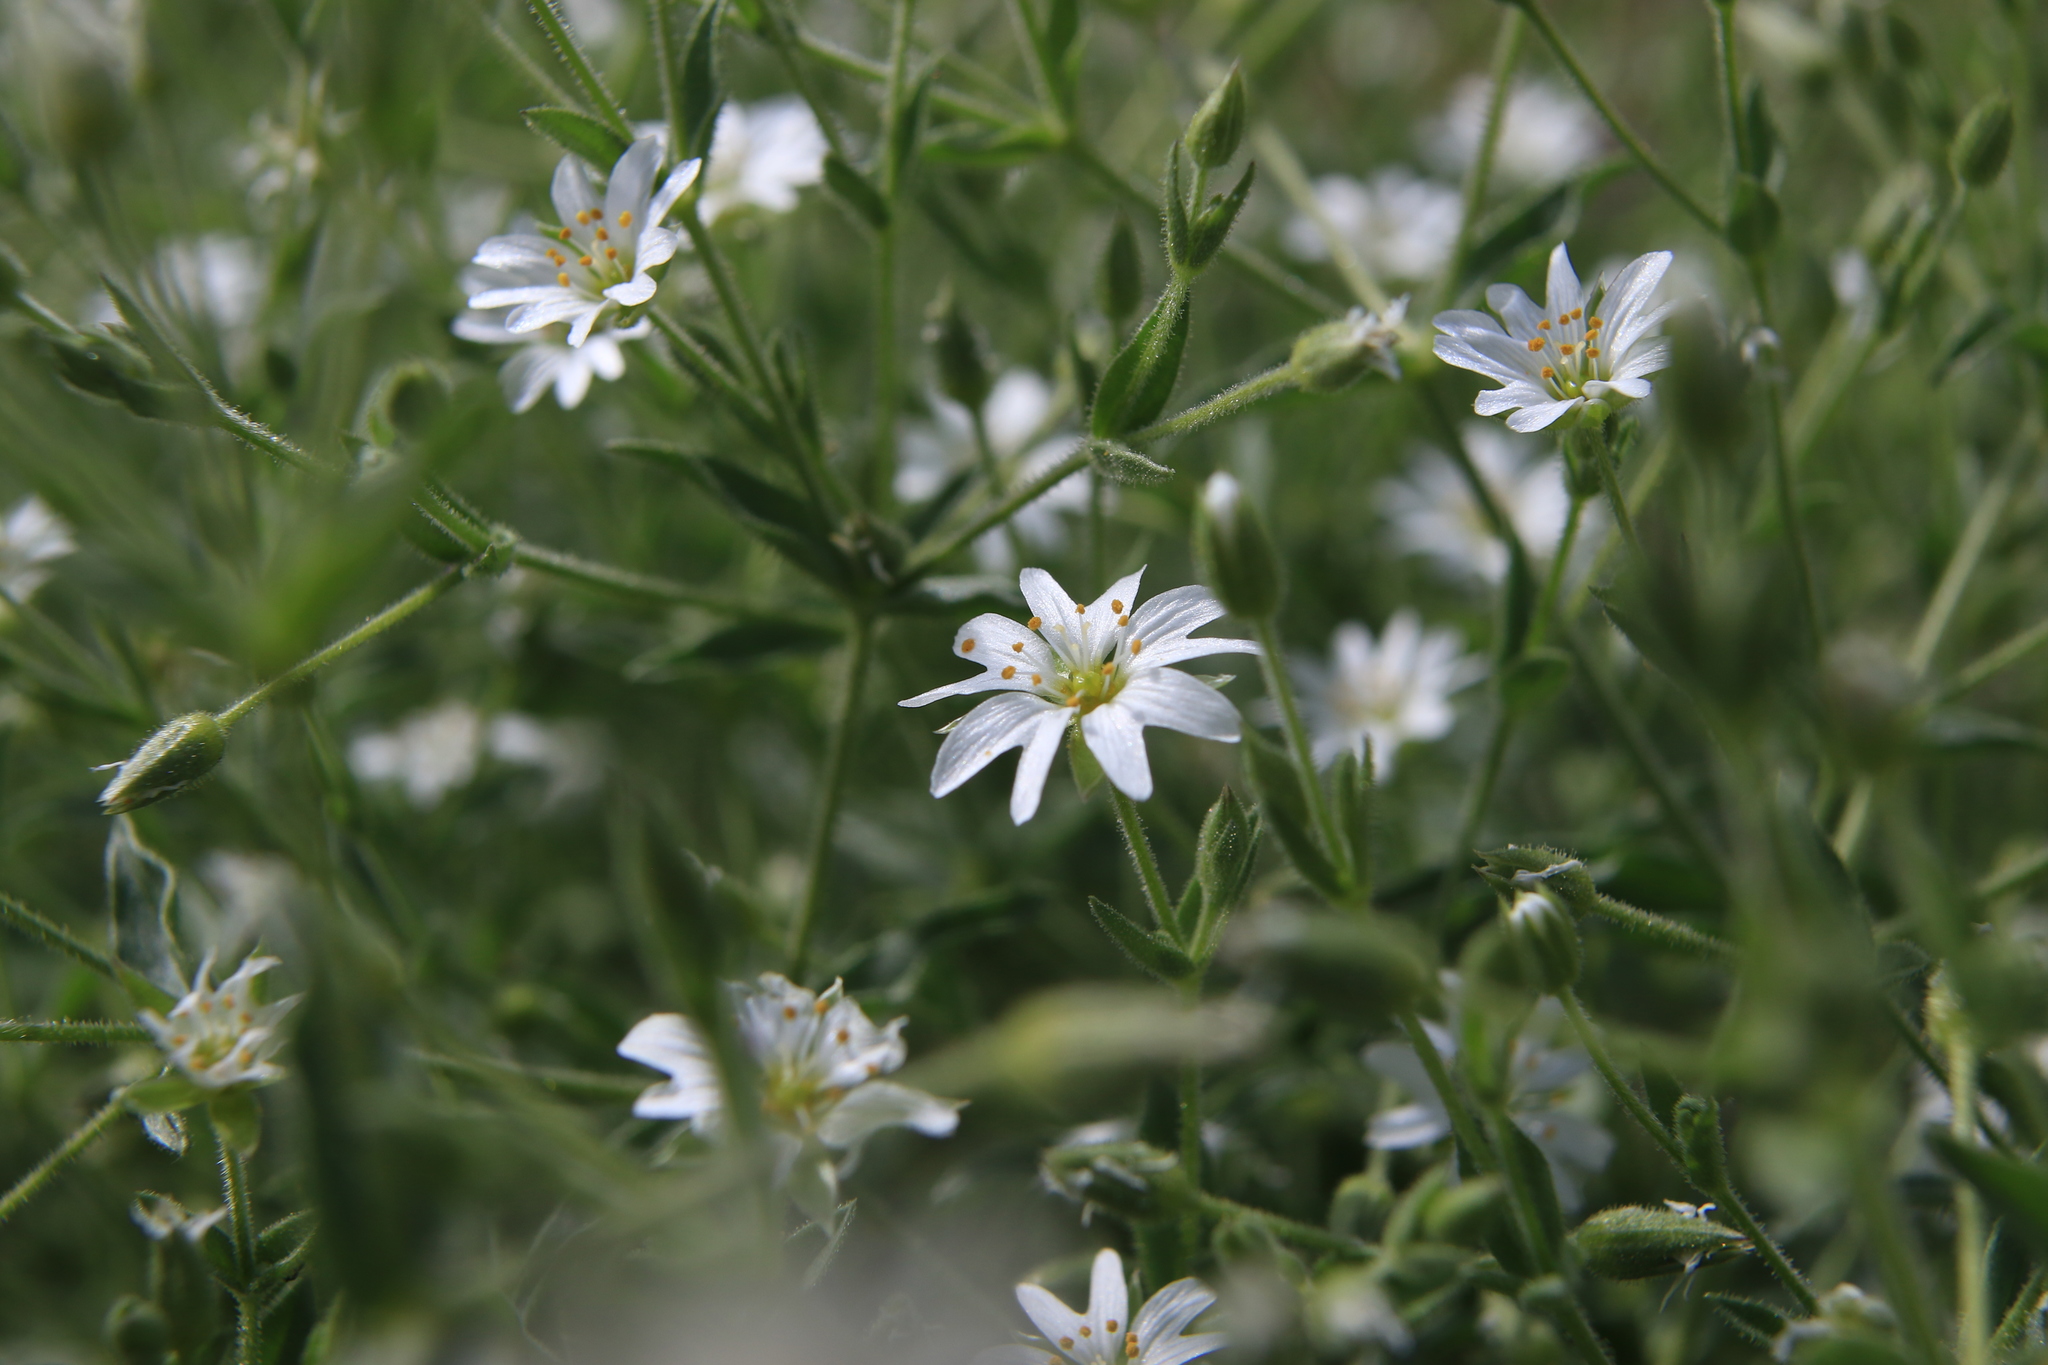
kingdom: Plantae
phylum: Tracheophyta
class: Magnoliopsida
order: Caryophyllales
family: Caryophyllaceae
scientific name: Caryophyllaceae
